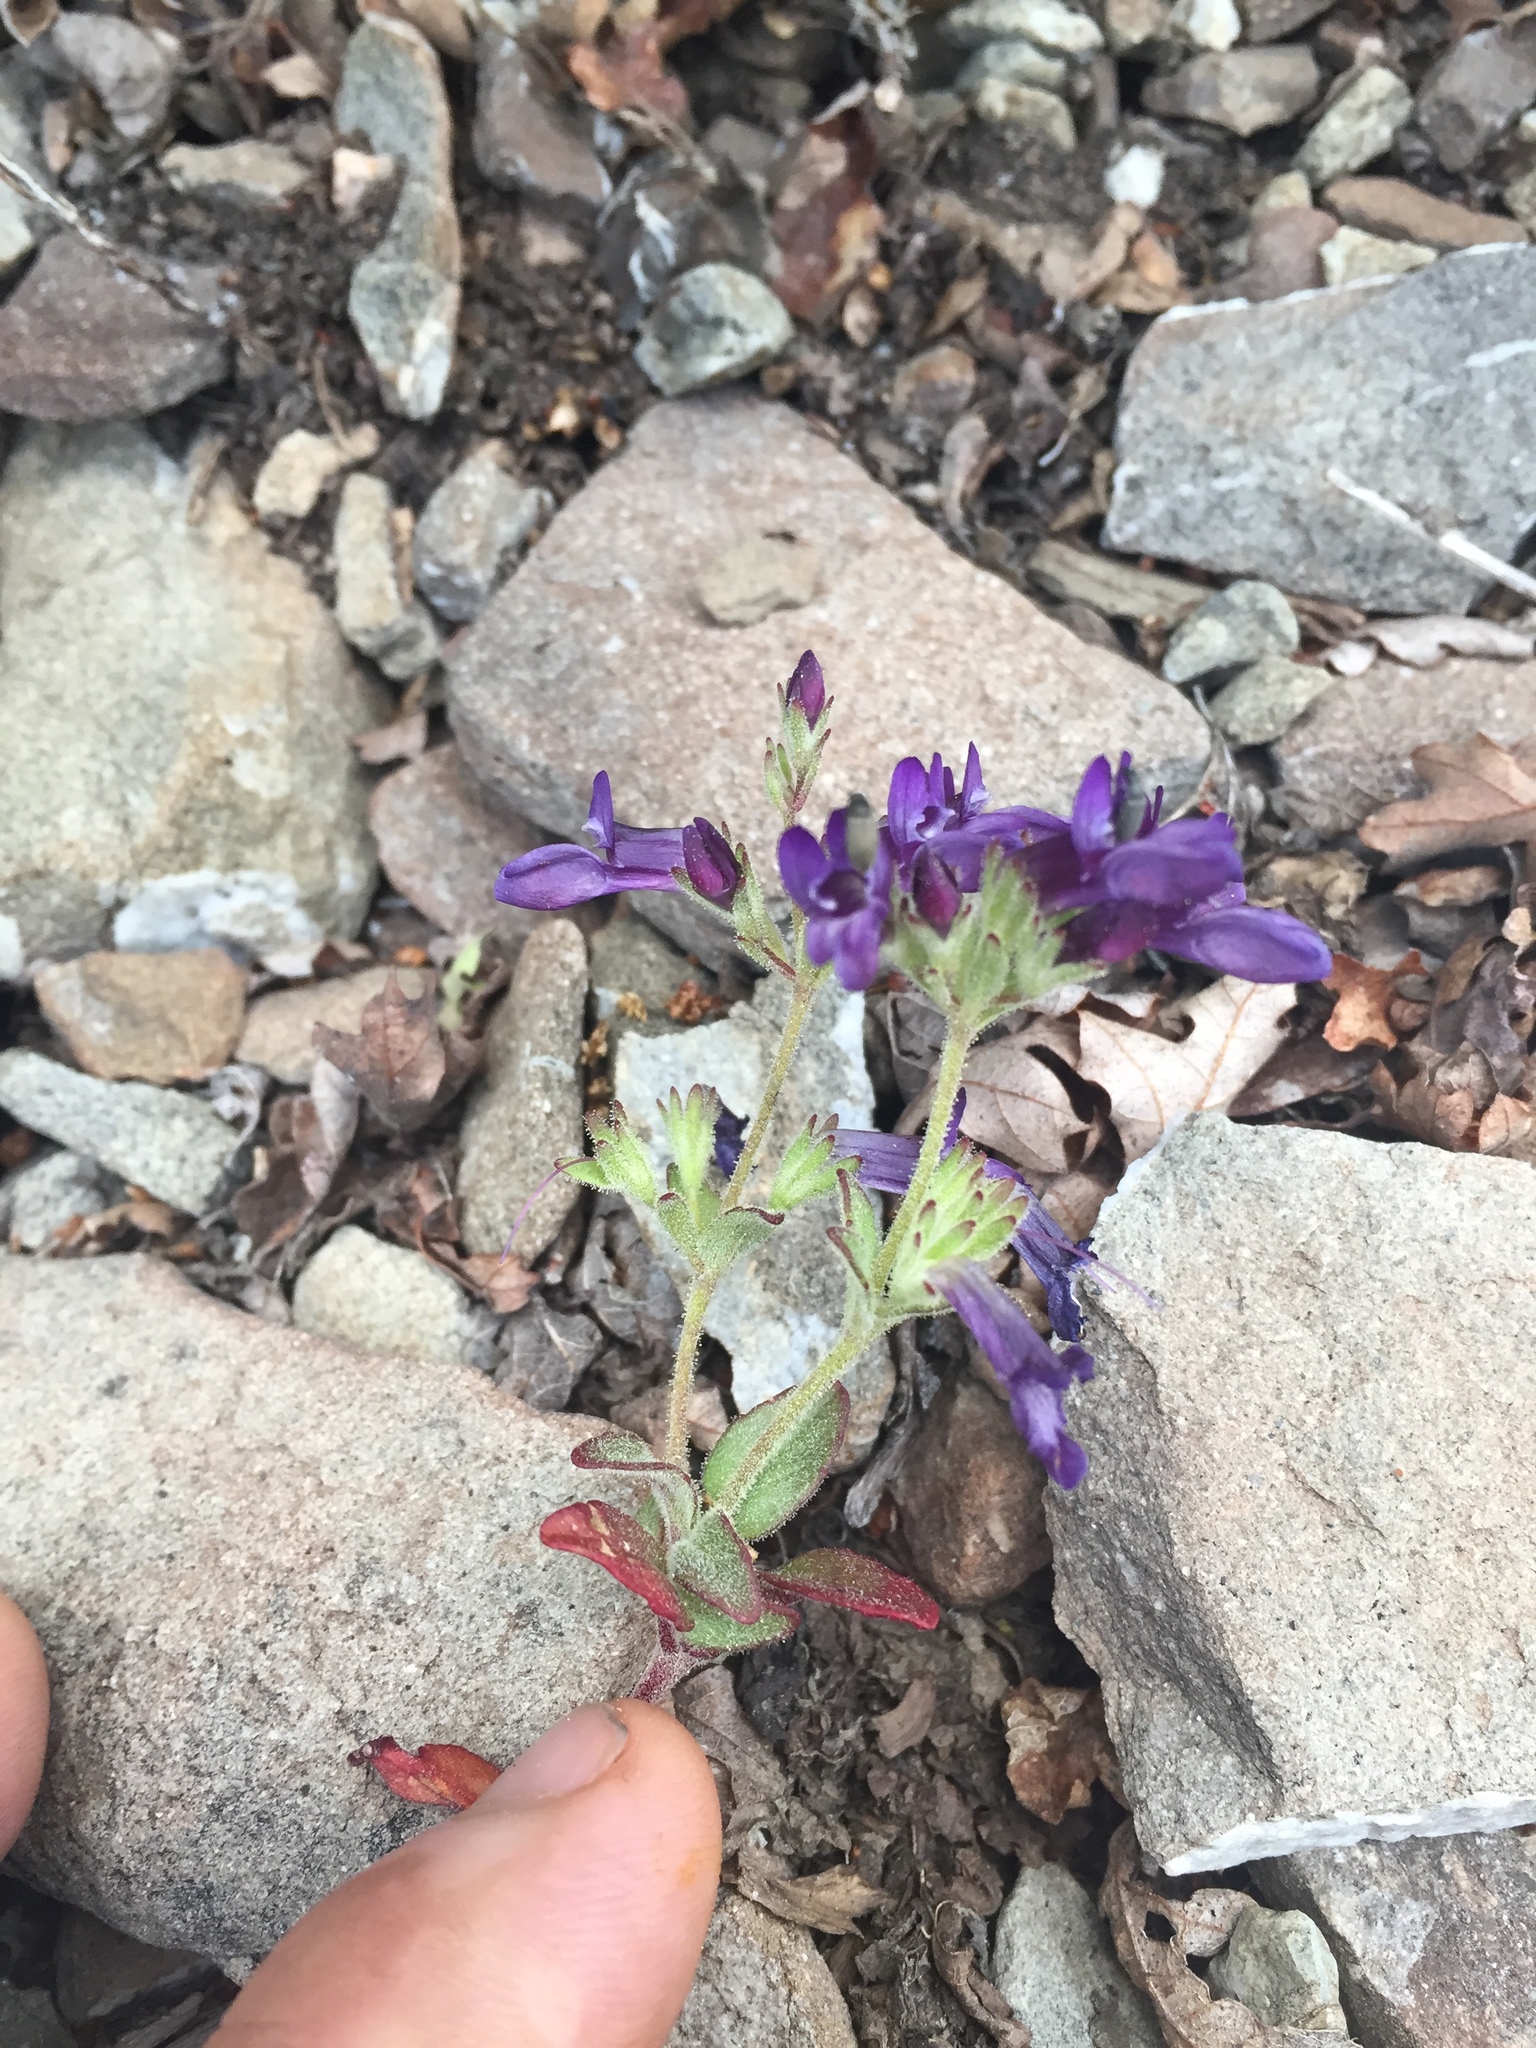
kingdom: Plantae
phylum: Tracheophyta
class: Magnoliopsida
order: Lamiales
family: Plantaginaceae
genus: Collinsia
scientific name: Collinsia greenei
